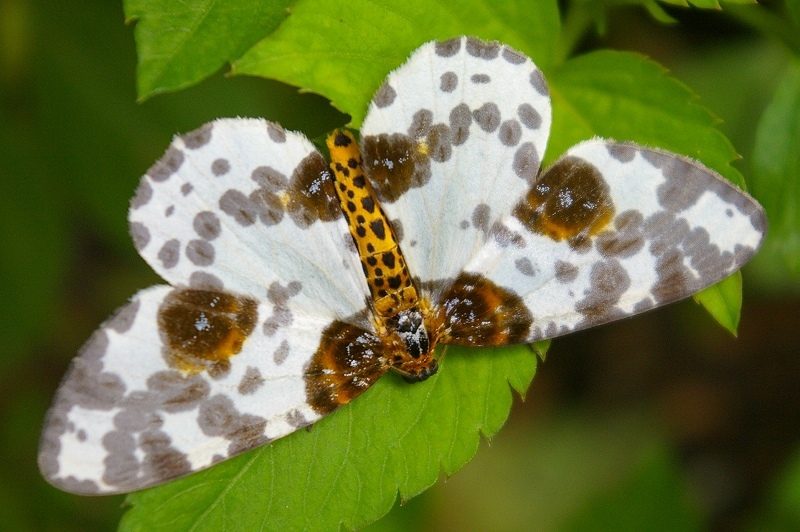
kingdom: Animalia
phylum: Arthropoda
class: Insecta
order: Lepidoptera
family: Geometridae
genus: Abraxas
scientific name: Abraxas niphonibia
